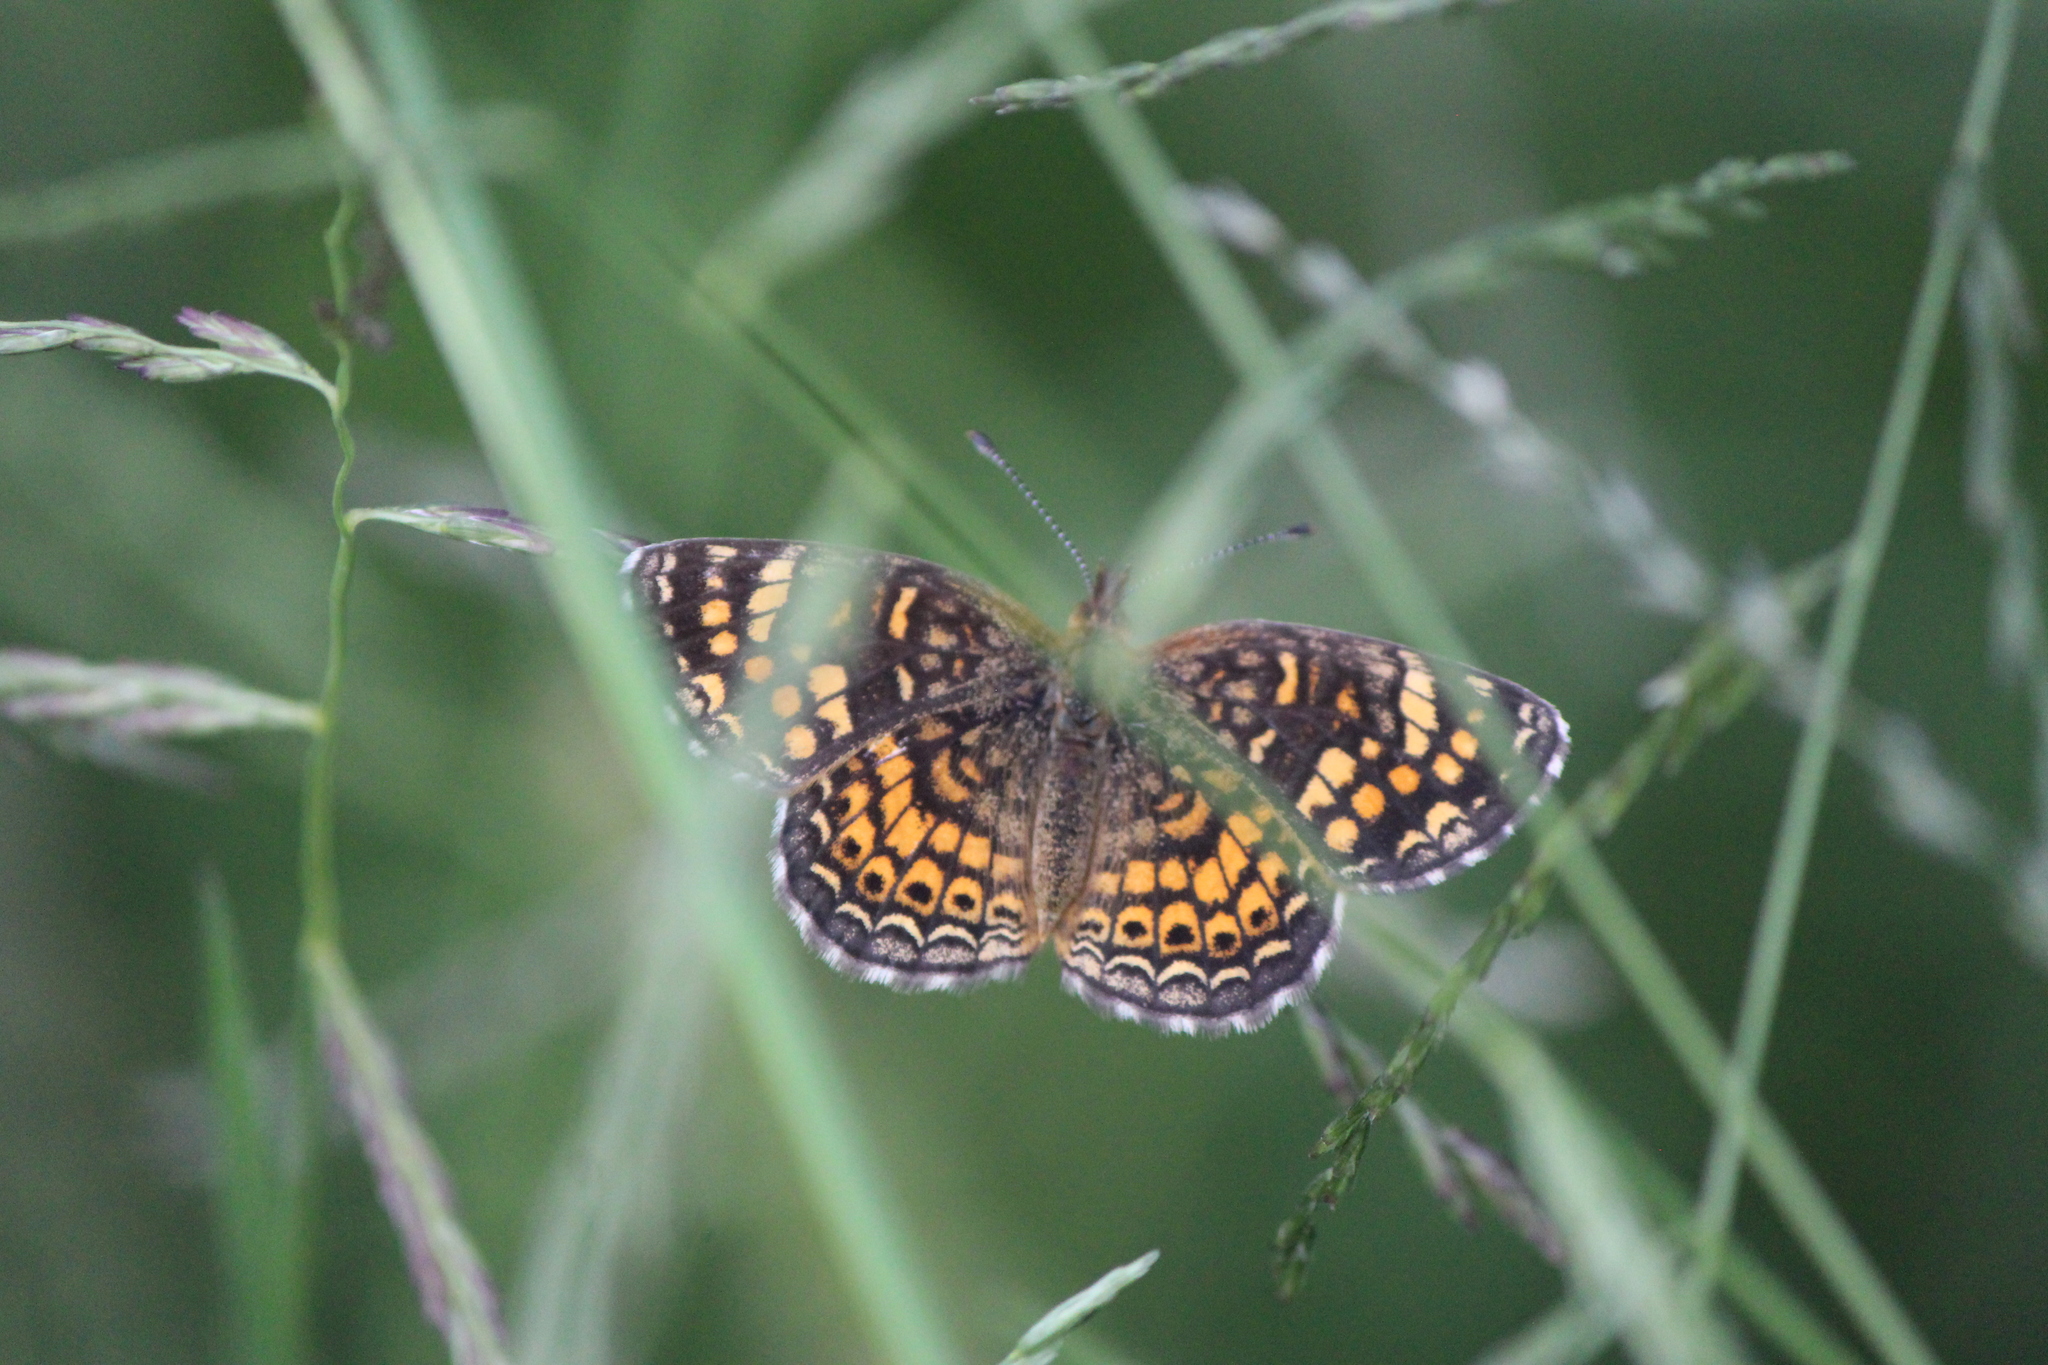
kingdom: Animalia
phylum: Arthropoda
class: Insecta
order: Lepidoptera
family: Nymphalidae
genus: Phyciodes
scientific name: Phyciodes vesta
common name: Vesta crescent
